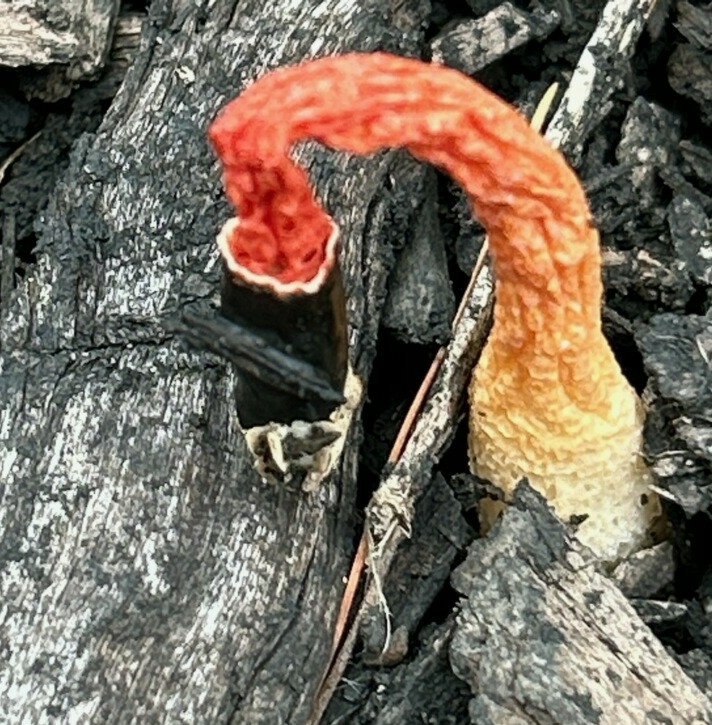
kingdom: Fungi
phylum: Basidiomycota
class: Agaricomycetes
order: Phallales
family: Phallaceae
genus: Phallus
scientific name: Phallus rugulosus
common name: Wrinkly stinkhorn
